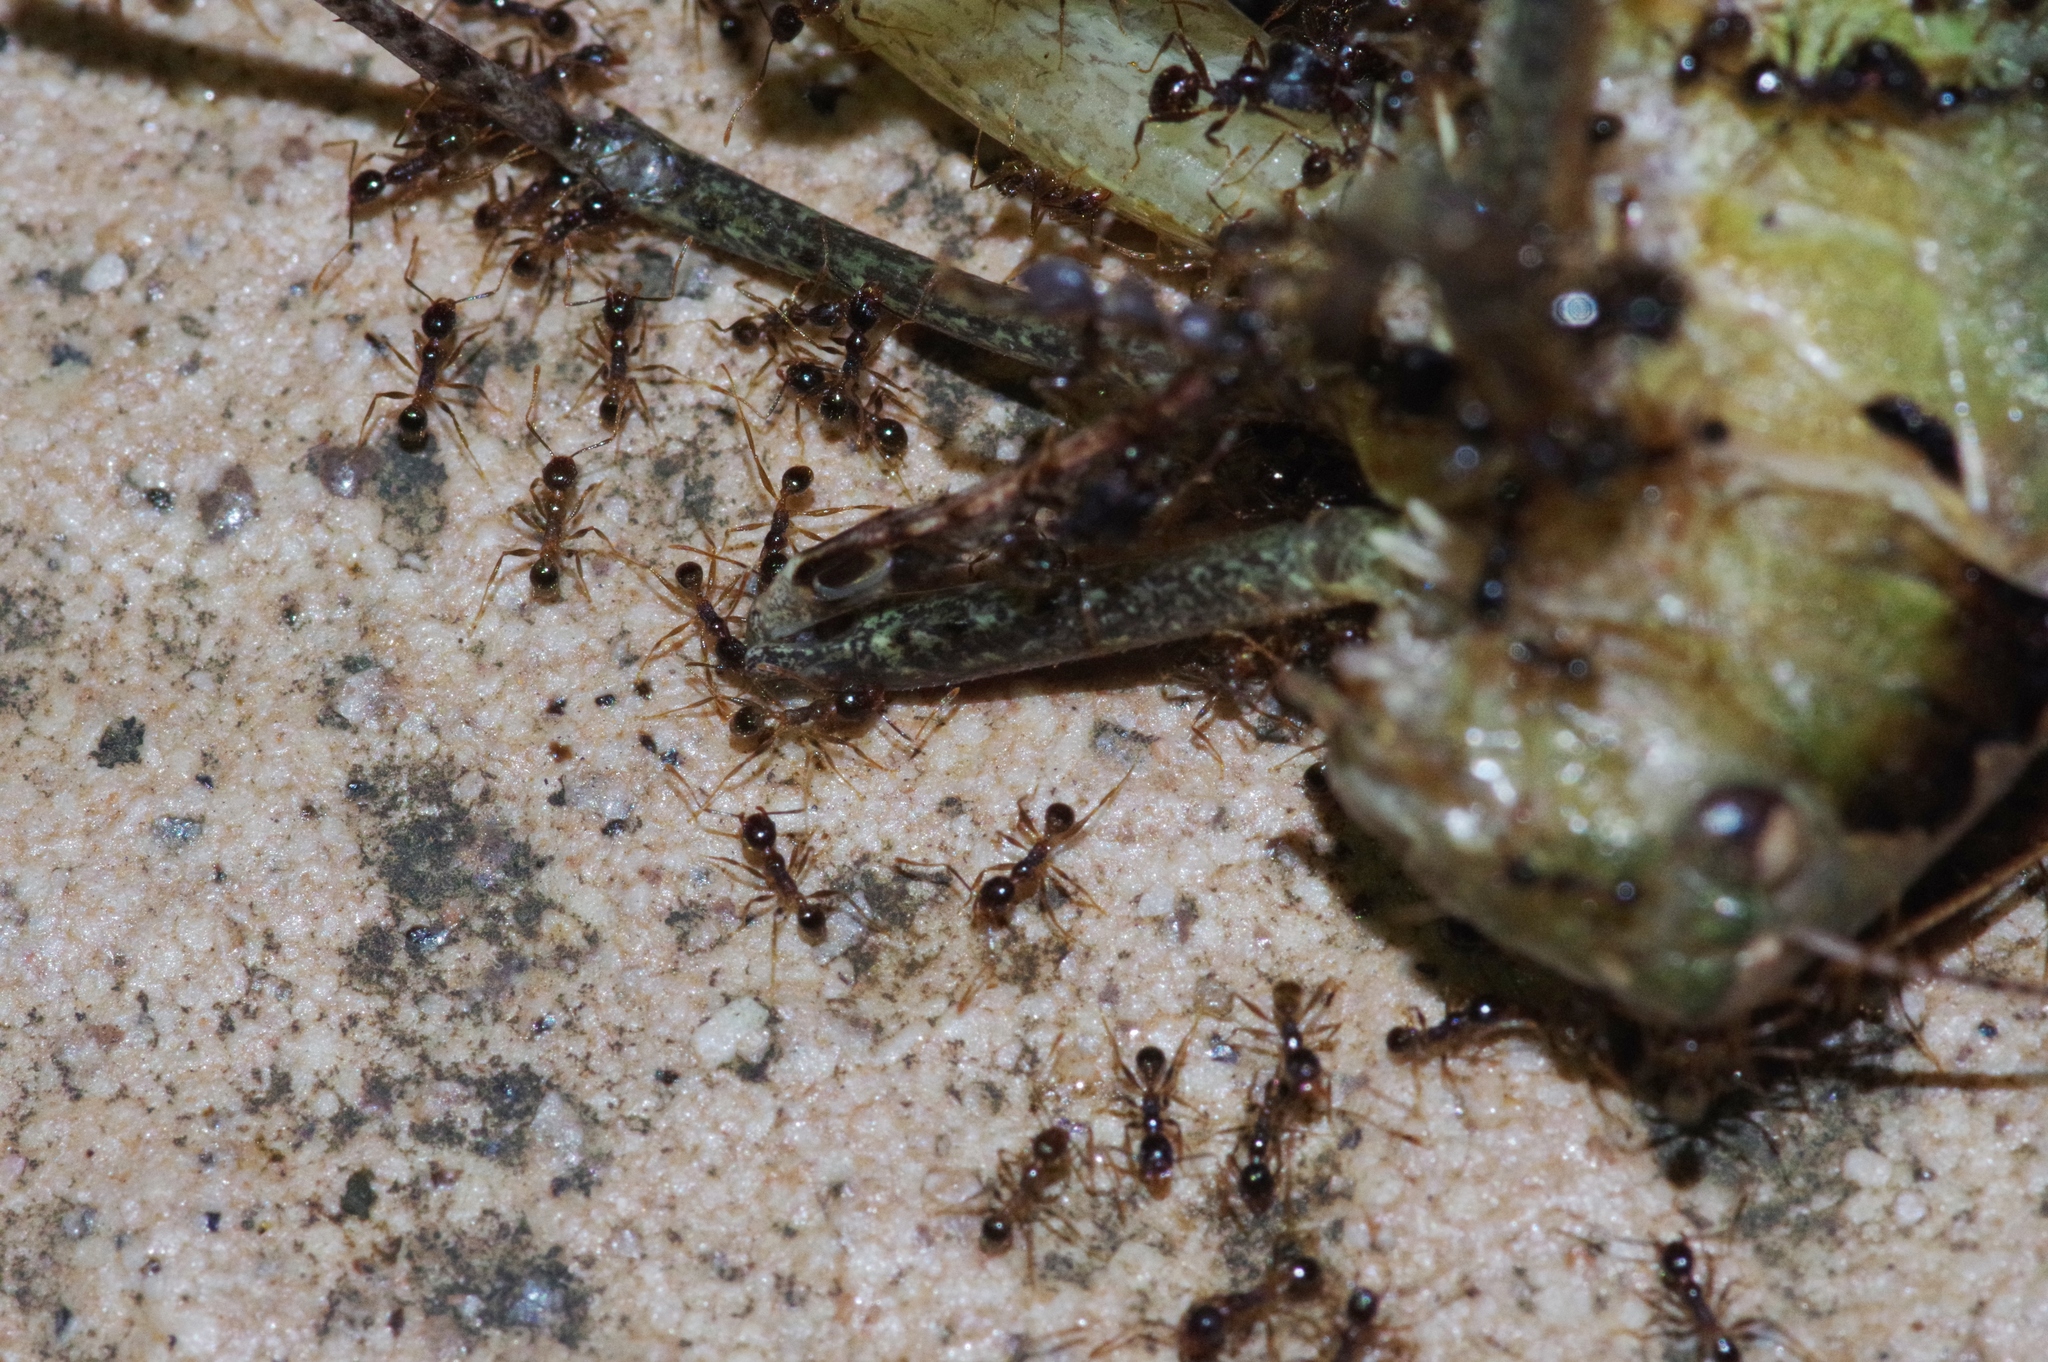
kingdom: Animalia
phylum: Arthropoda
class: Insecta
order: Hymenoptera
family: Formicidae
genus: Pheidole
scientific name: Pheidole noda
